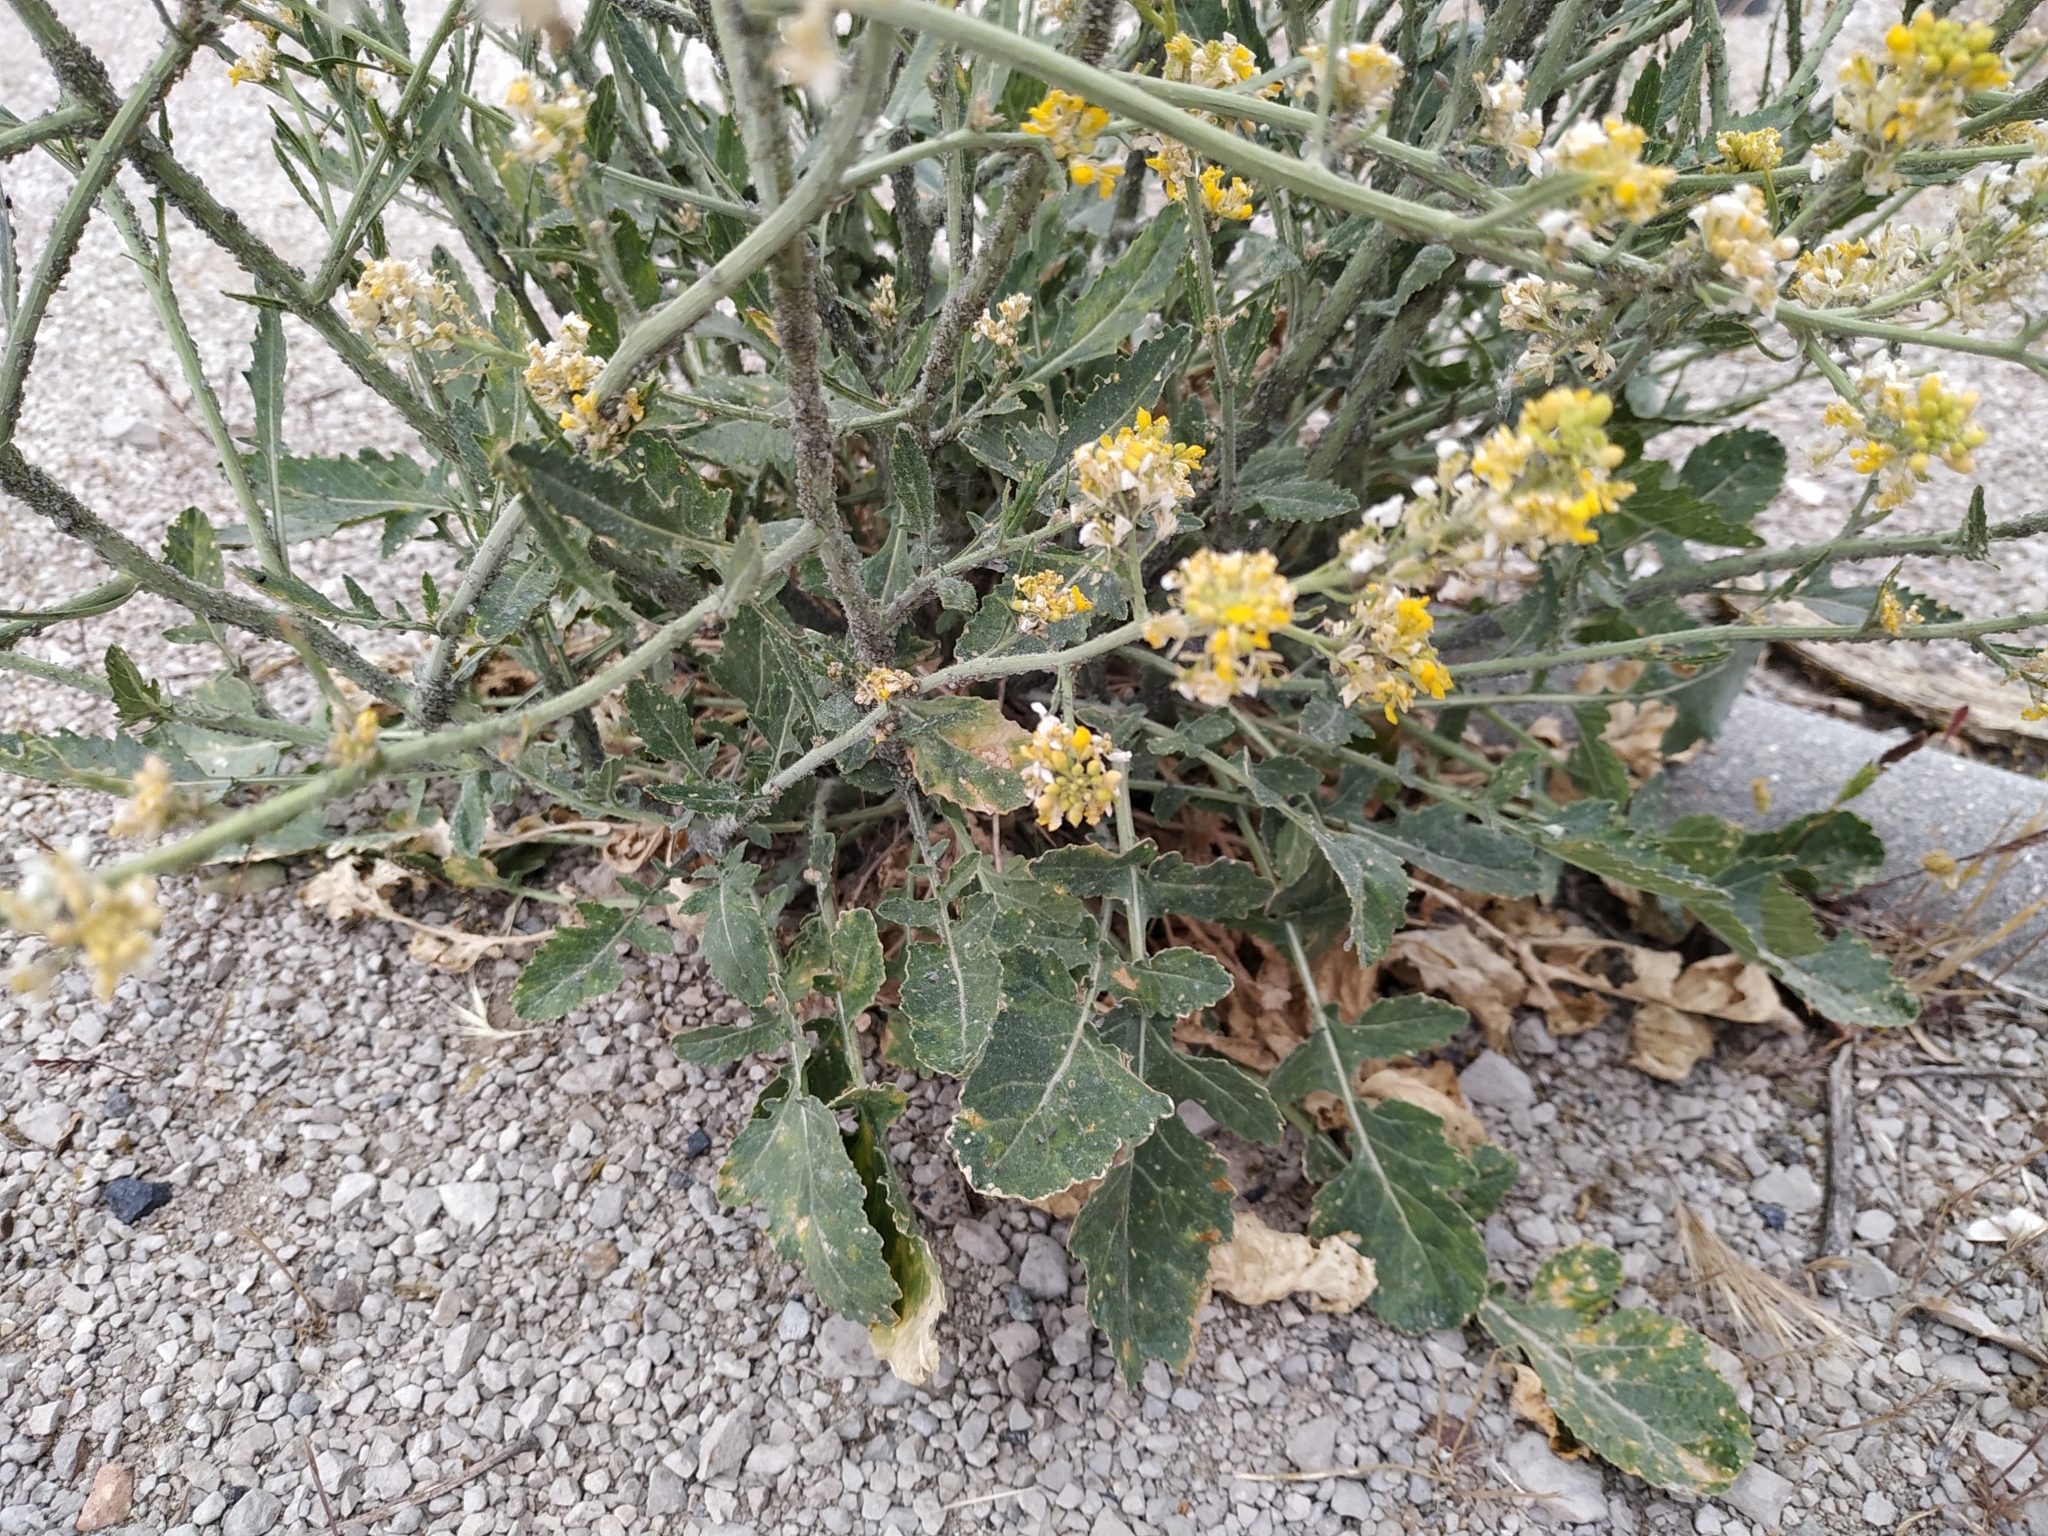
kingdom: Plantae
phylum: Tracheophyta
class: Magnoliopsida
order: Brassicales
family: Brassicaceae
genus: Hirschfeldia
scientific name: Hirschfeldia incana
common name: Hoary mustard
